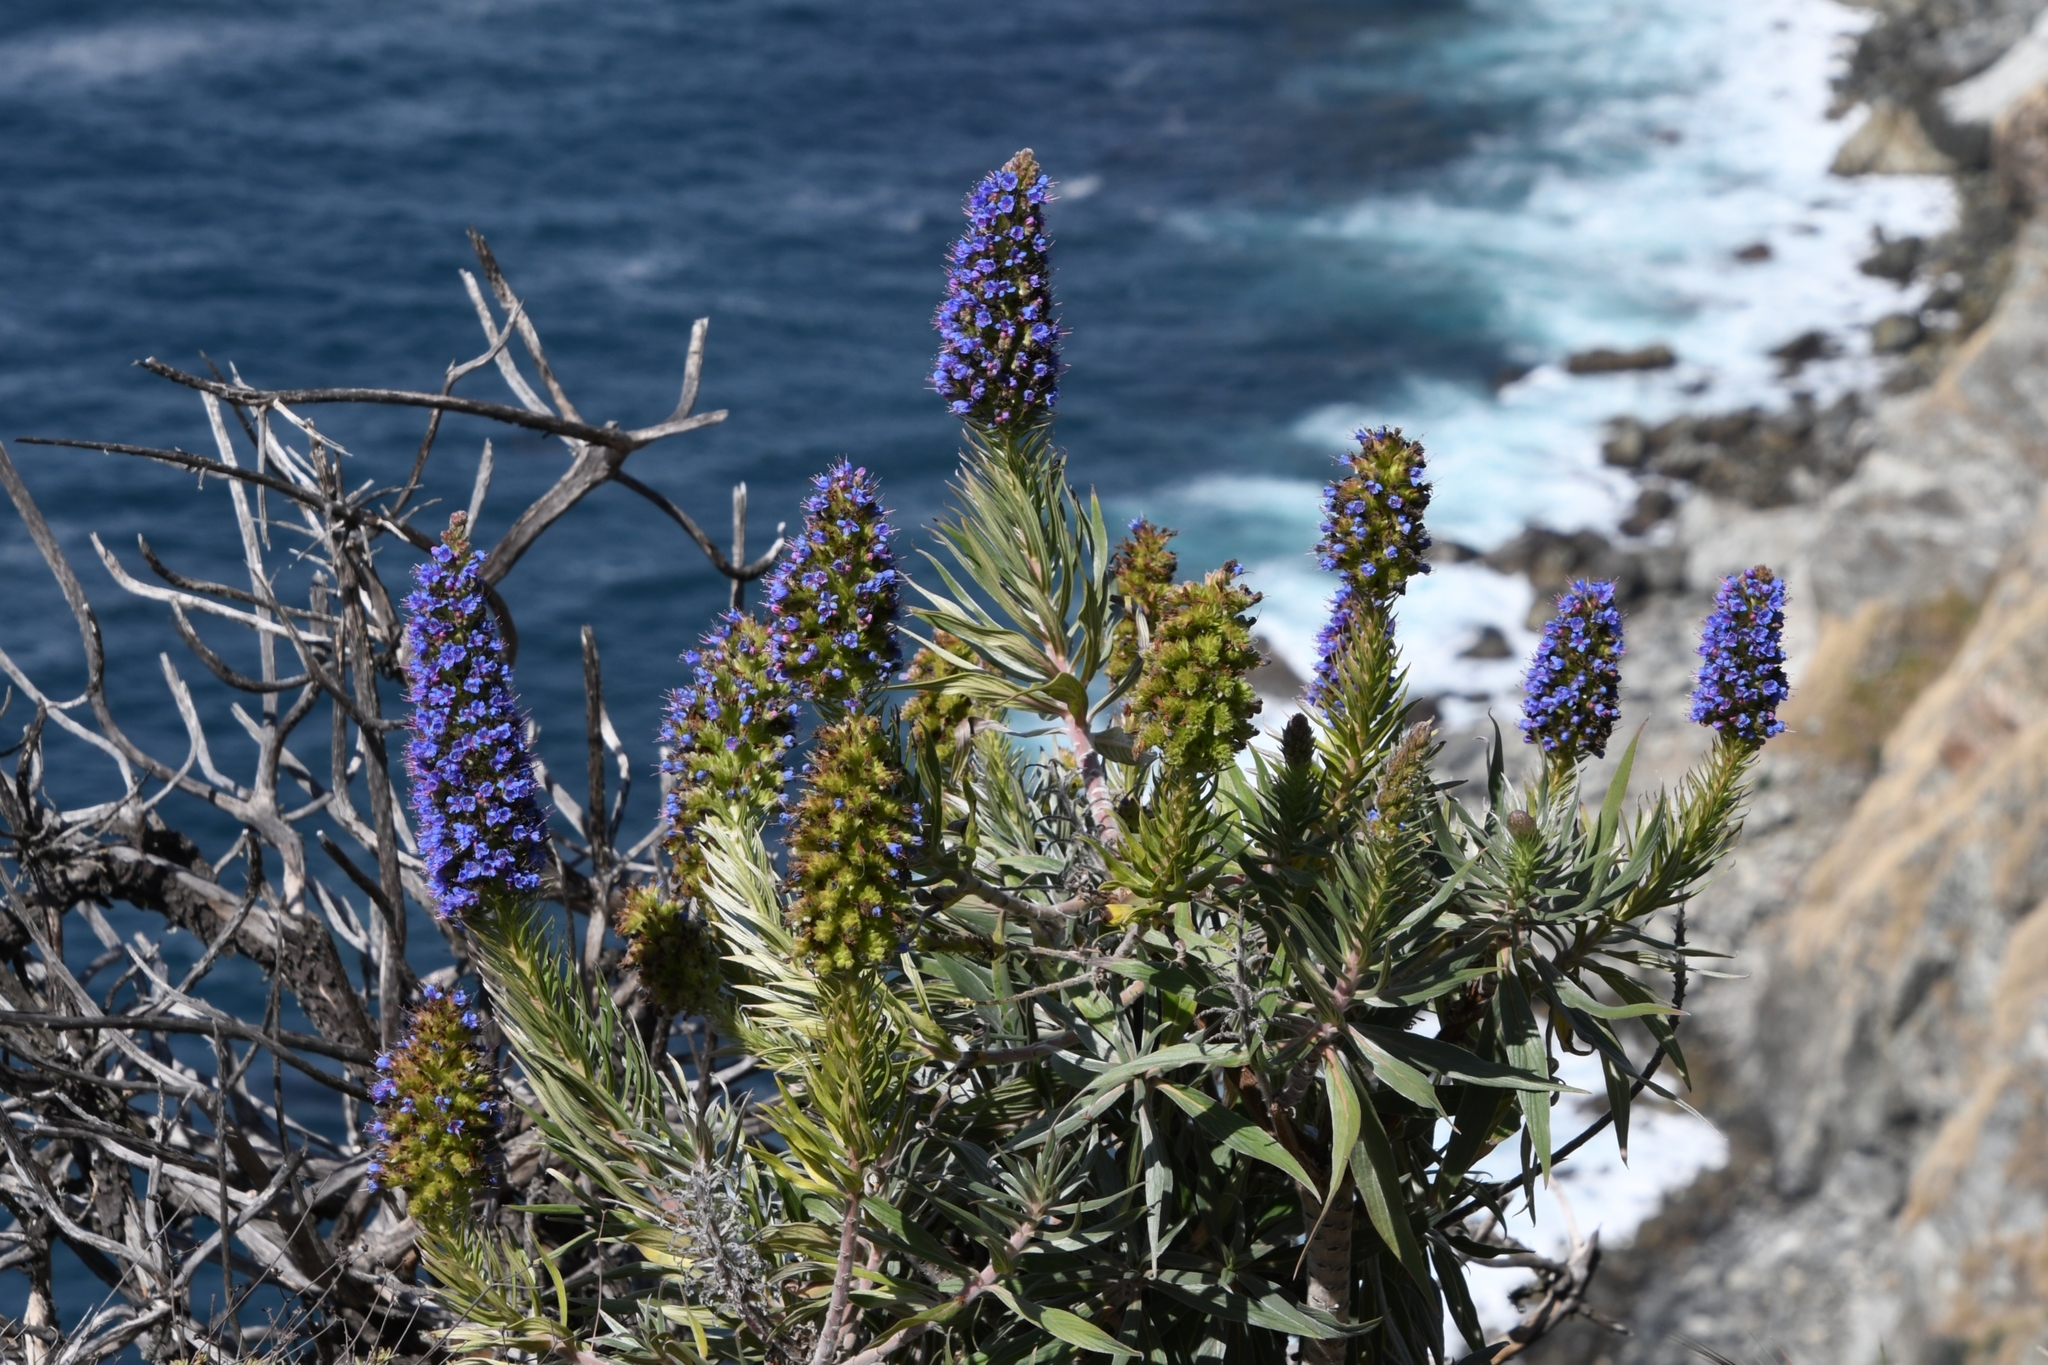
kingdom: Plantae
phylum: Tracheophyta
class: Magnoliopsida
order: Boraginales
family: Boraginaceae
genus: Echium
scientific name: Echium candicans
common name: Pride of madeira
